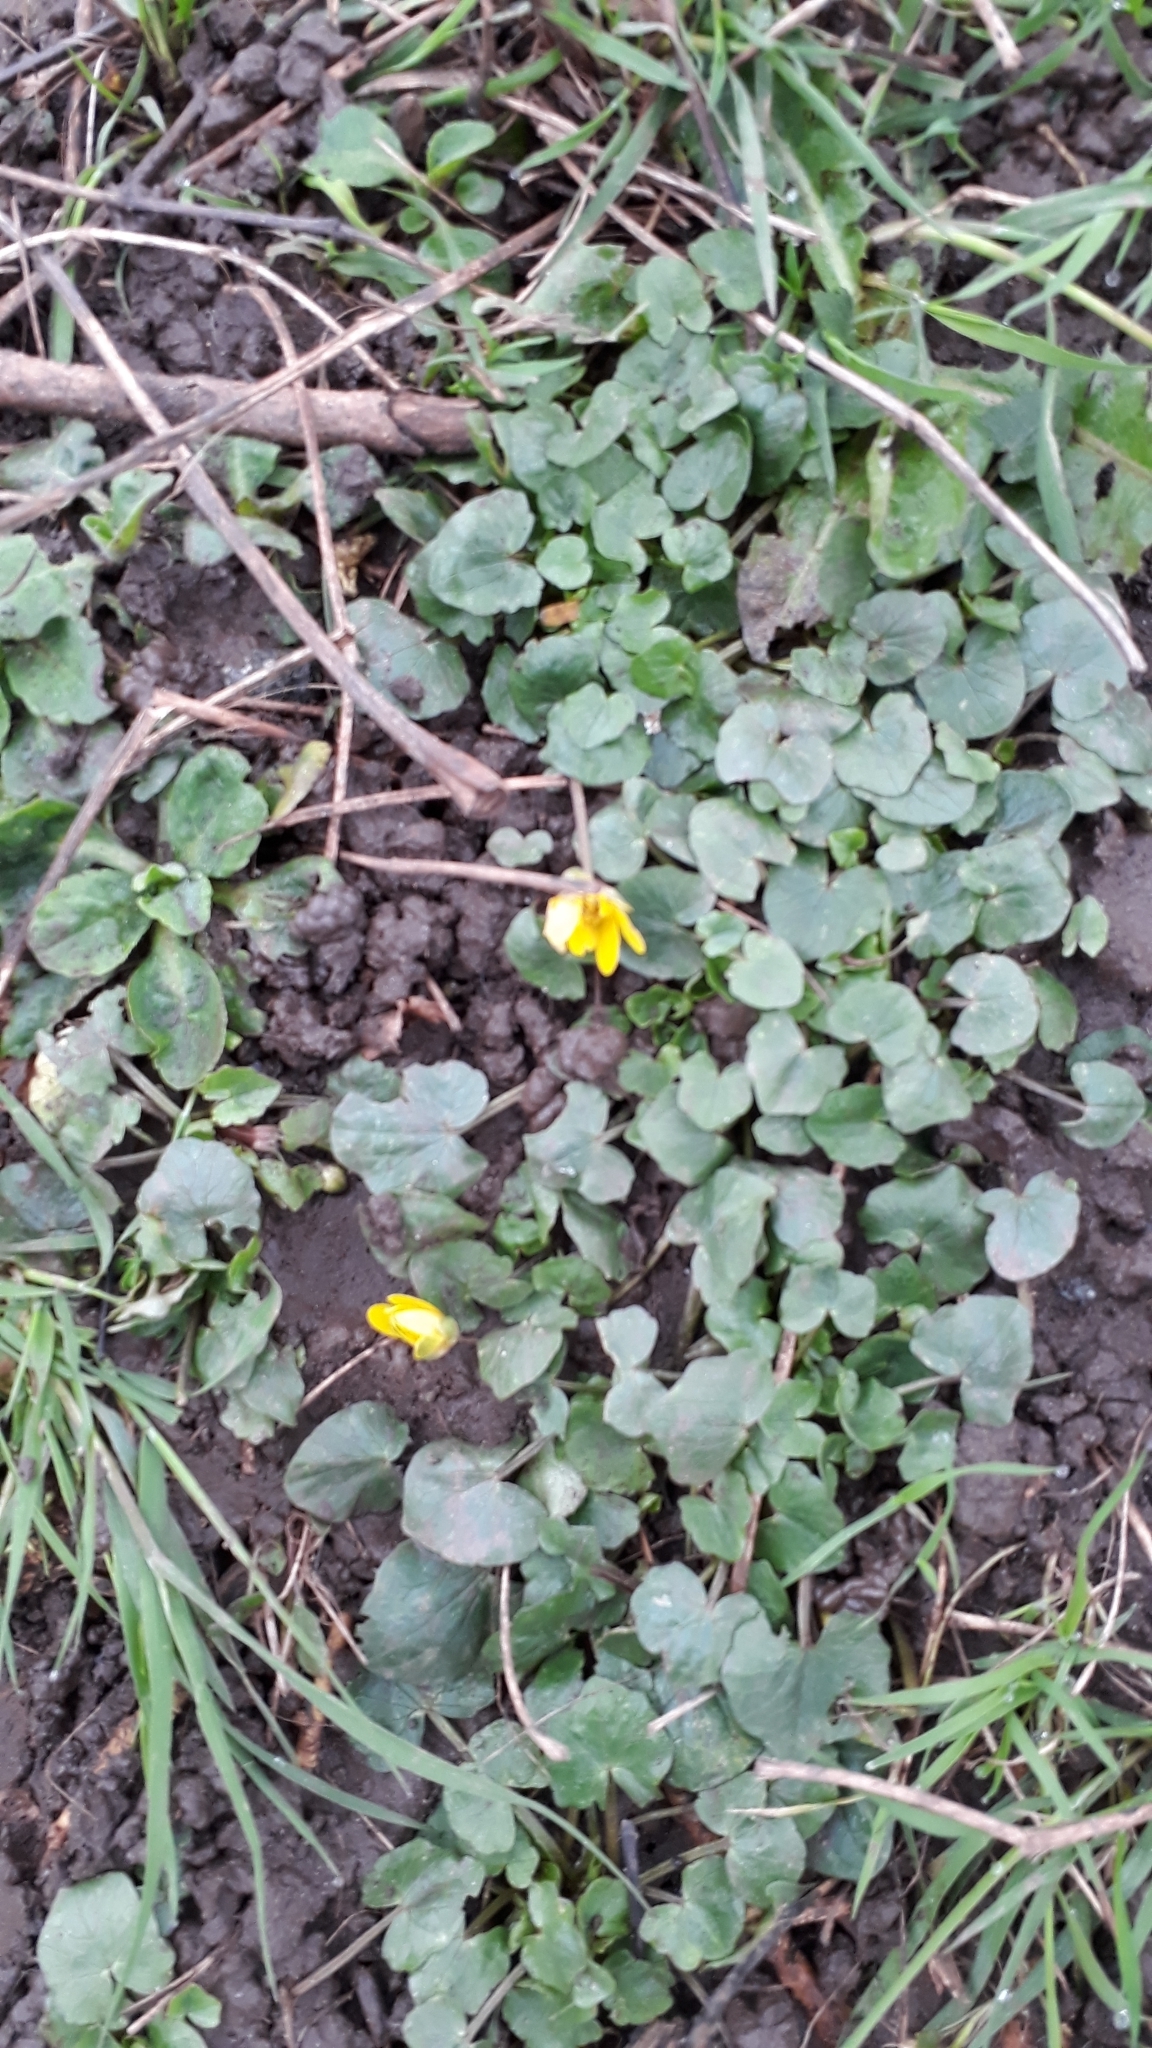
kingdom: Plantae
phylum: Tracheophyta
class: Magnoliopsida
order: Ranunculales
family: Ranunculaceae
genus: Ficaria
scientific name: Ficaria verna
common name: Lesser celandine
